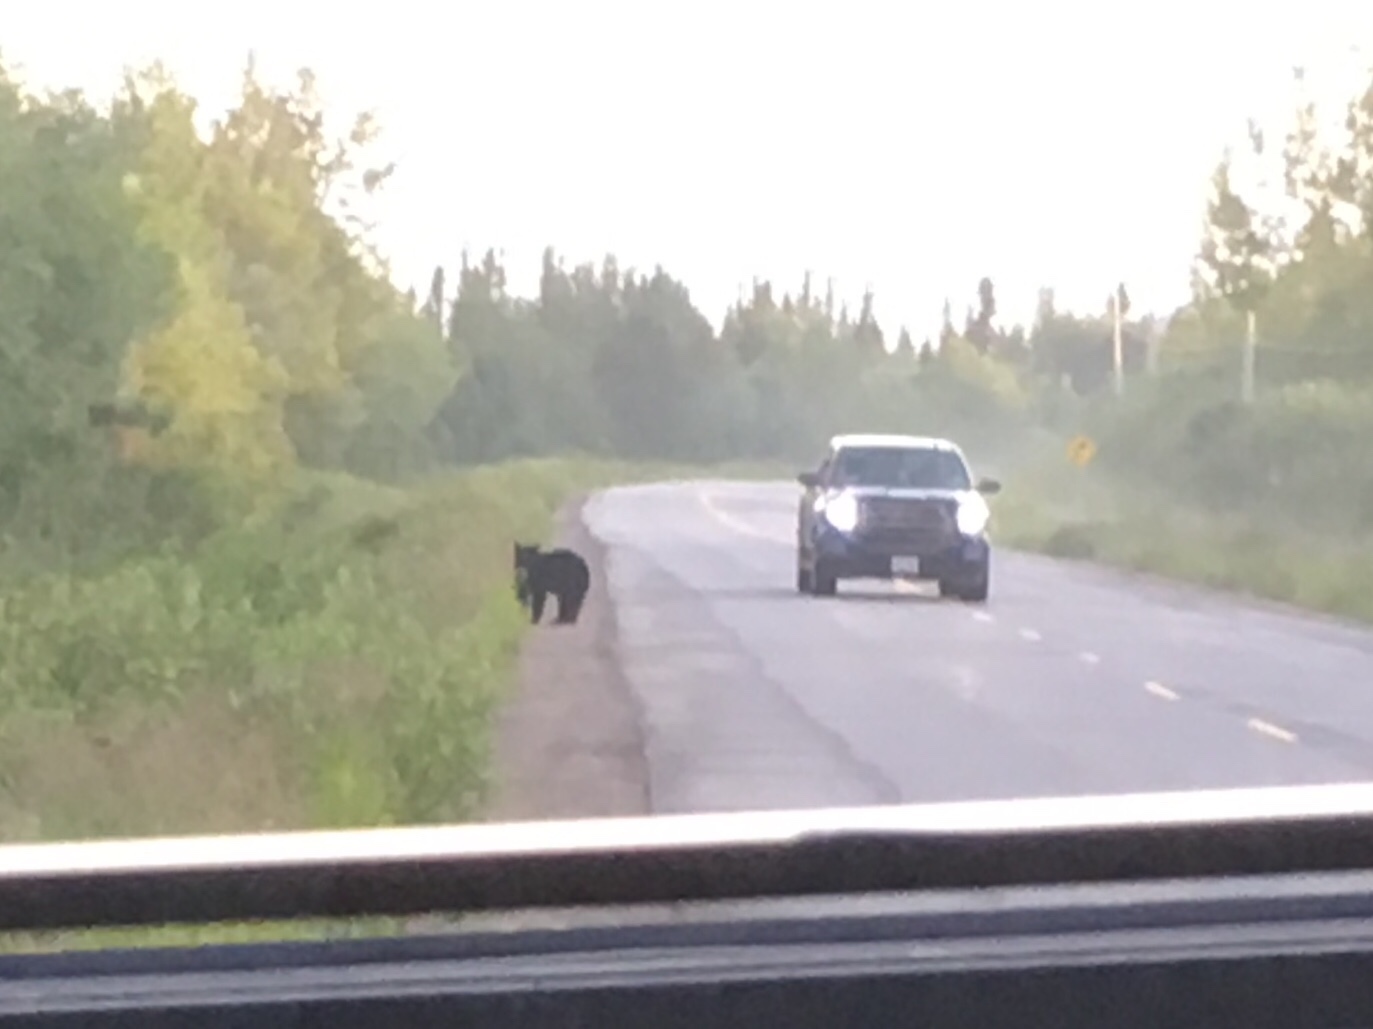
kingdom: Animalia
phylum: Chordata
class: Mammalia
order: Carnivora
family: Ursidae
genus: Ursus
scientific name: Ursus americanus
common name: American black bear
